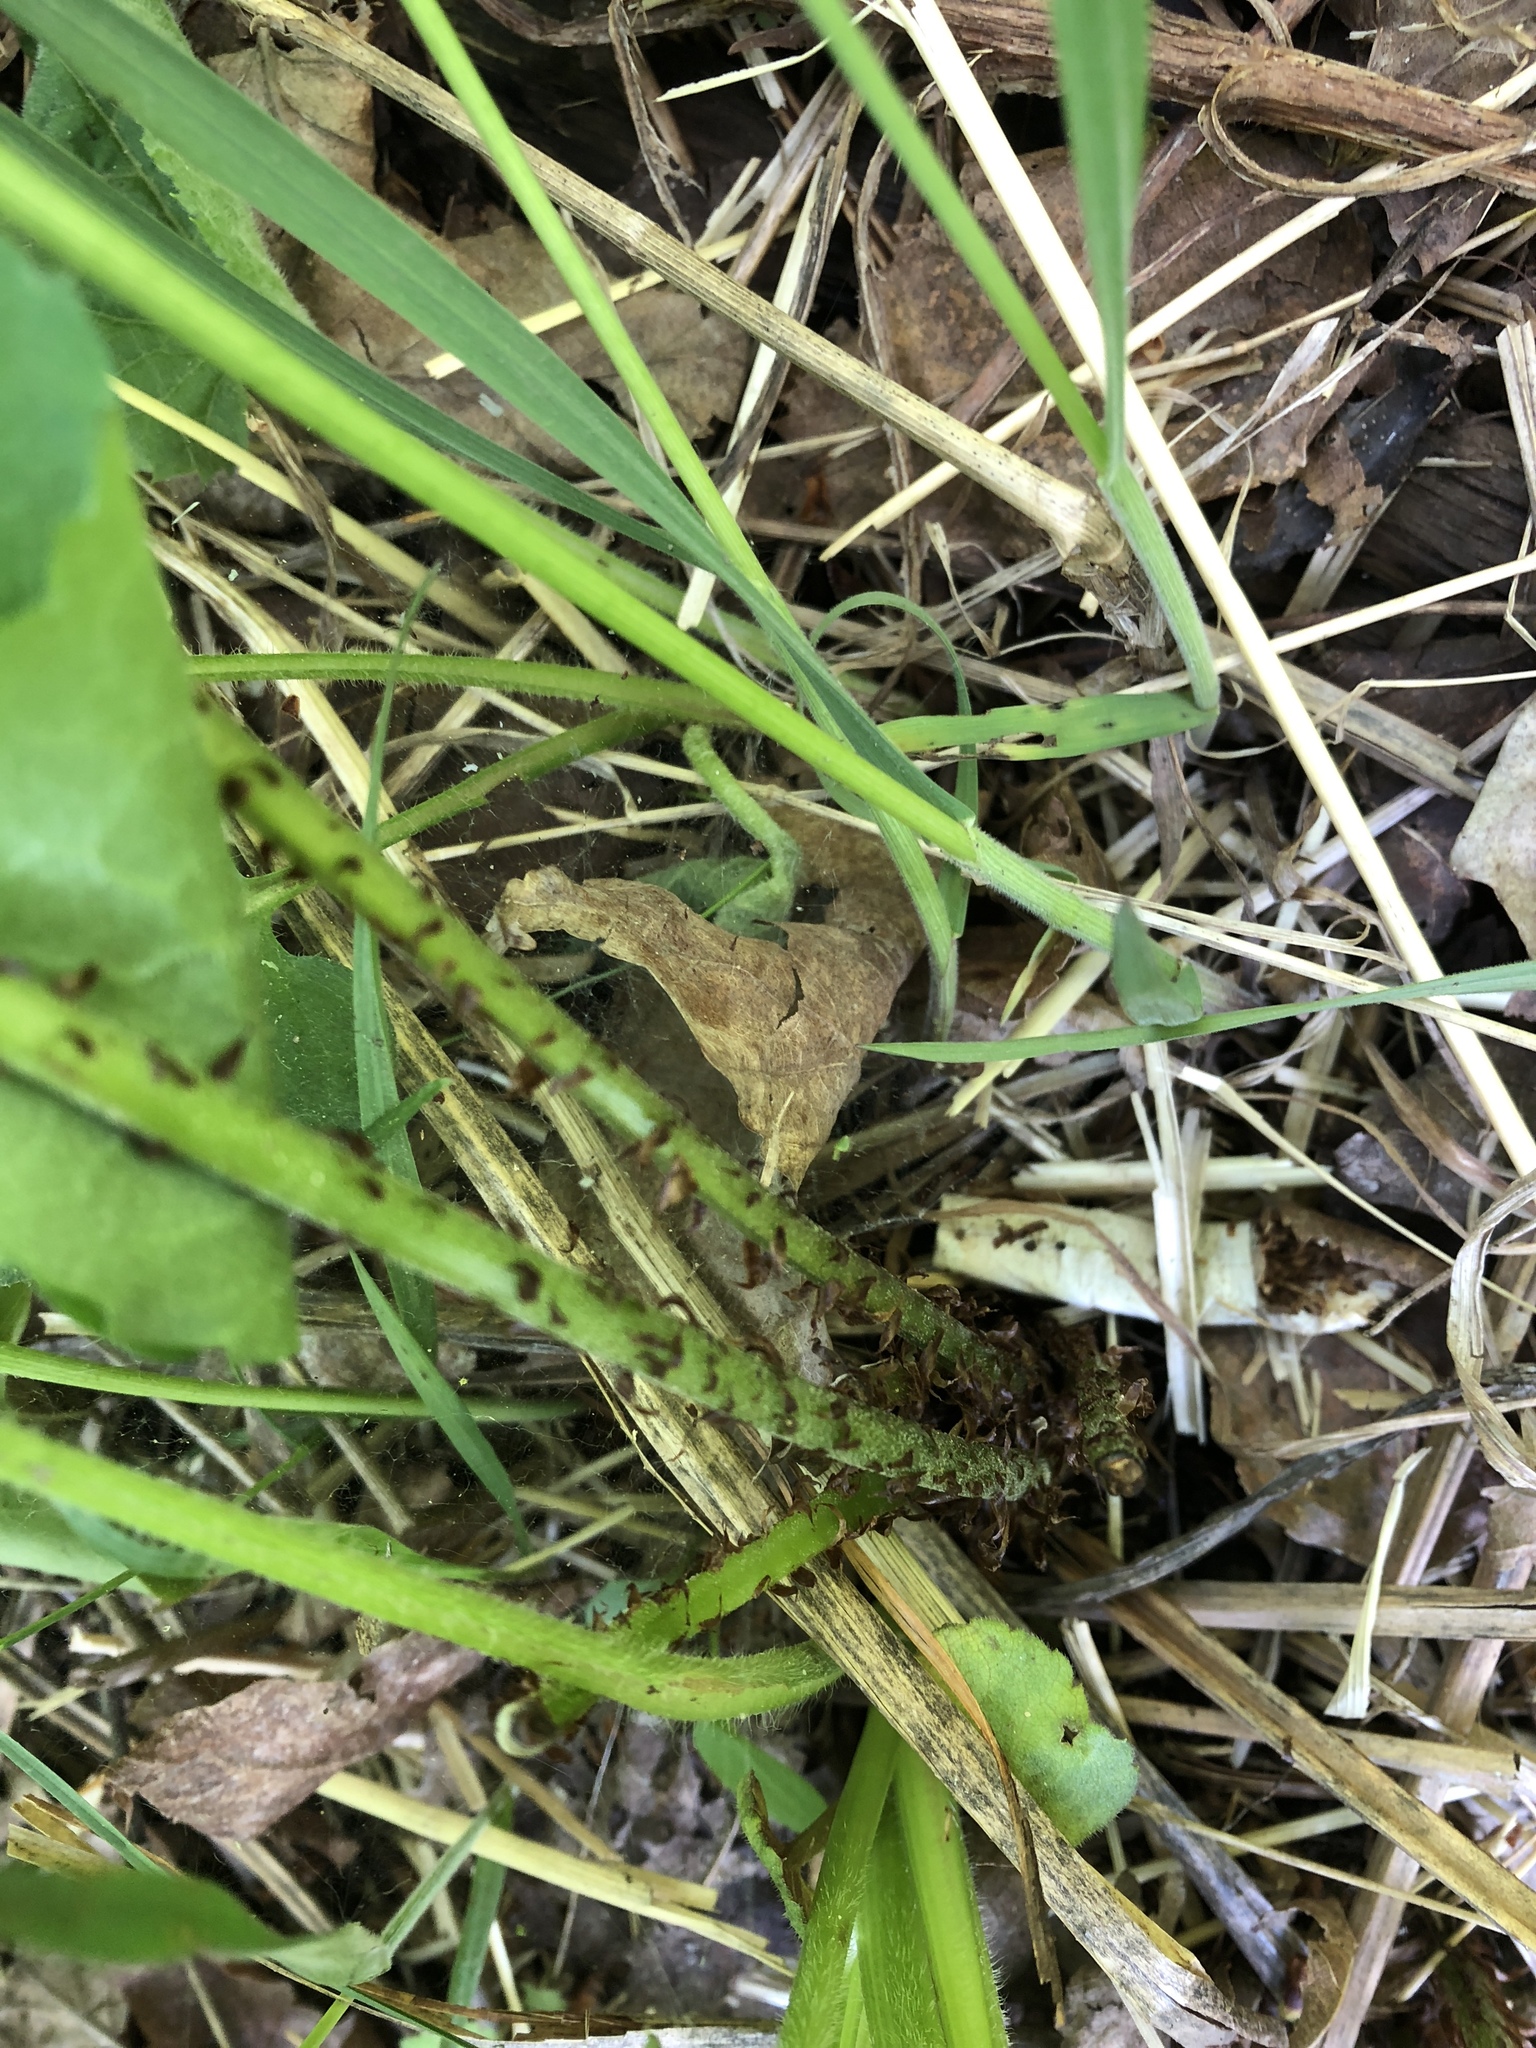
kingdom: Plantae
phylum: Tracheophyta
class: Polypodiopsida
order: Polypodiales
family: Athyriaceae
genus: Athyrium
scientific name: Athyrium angustum
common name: Northern lady fern
